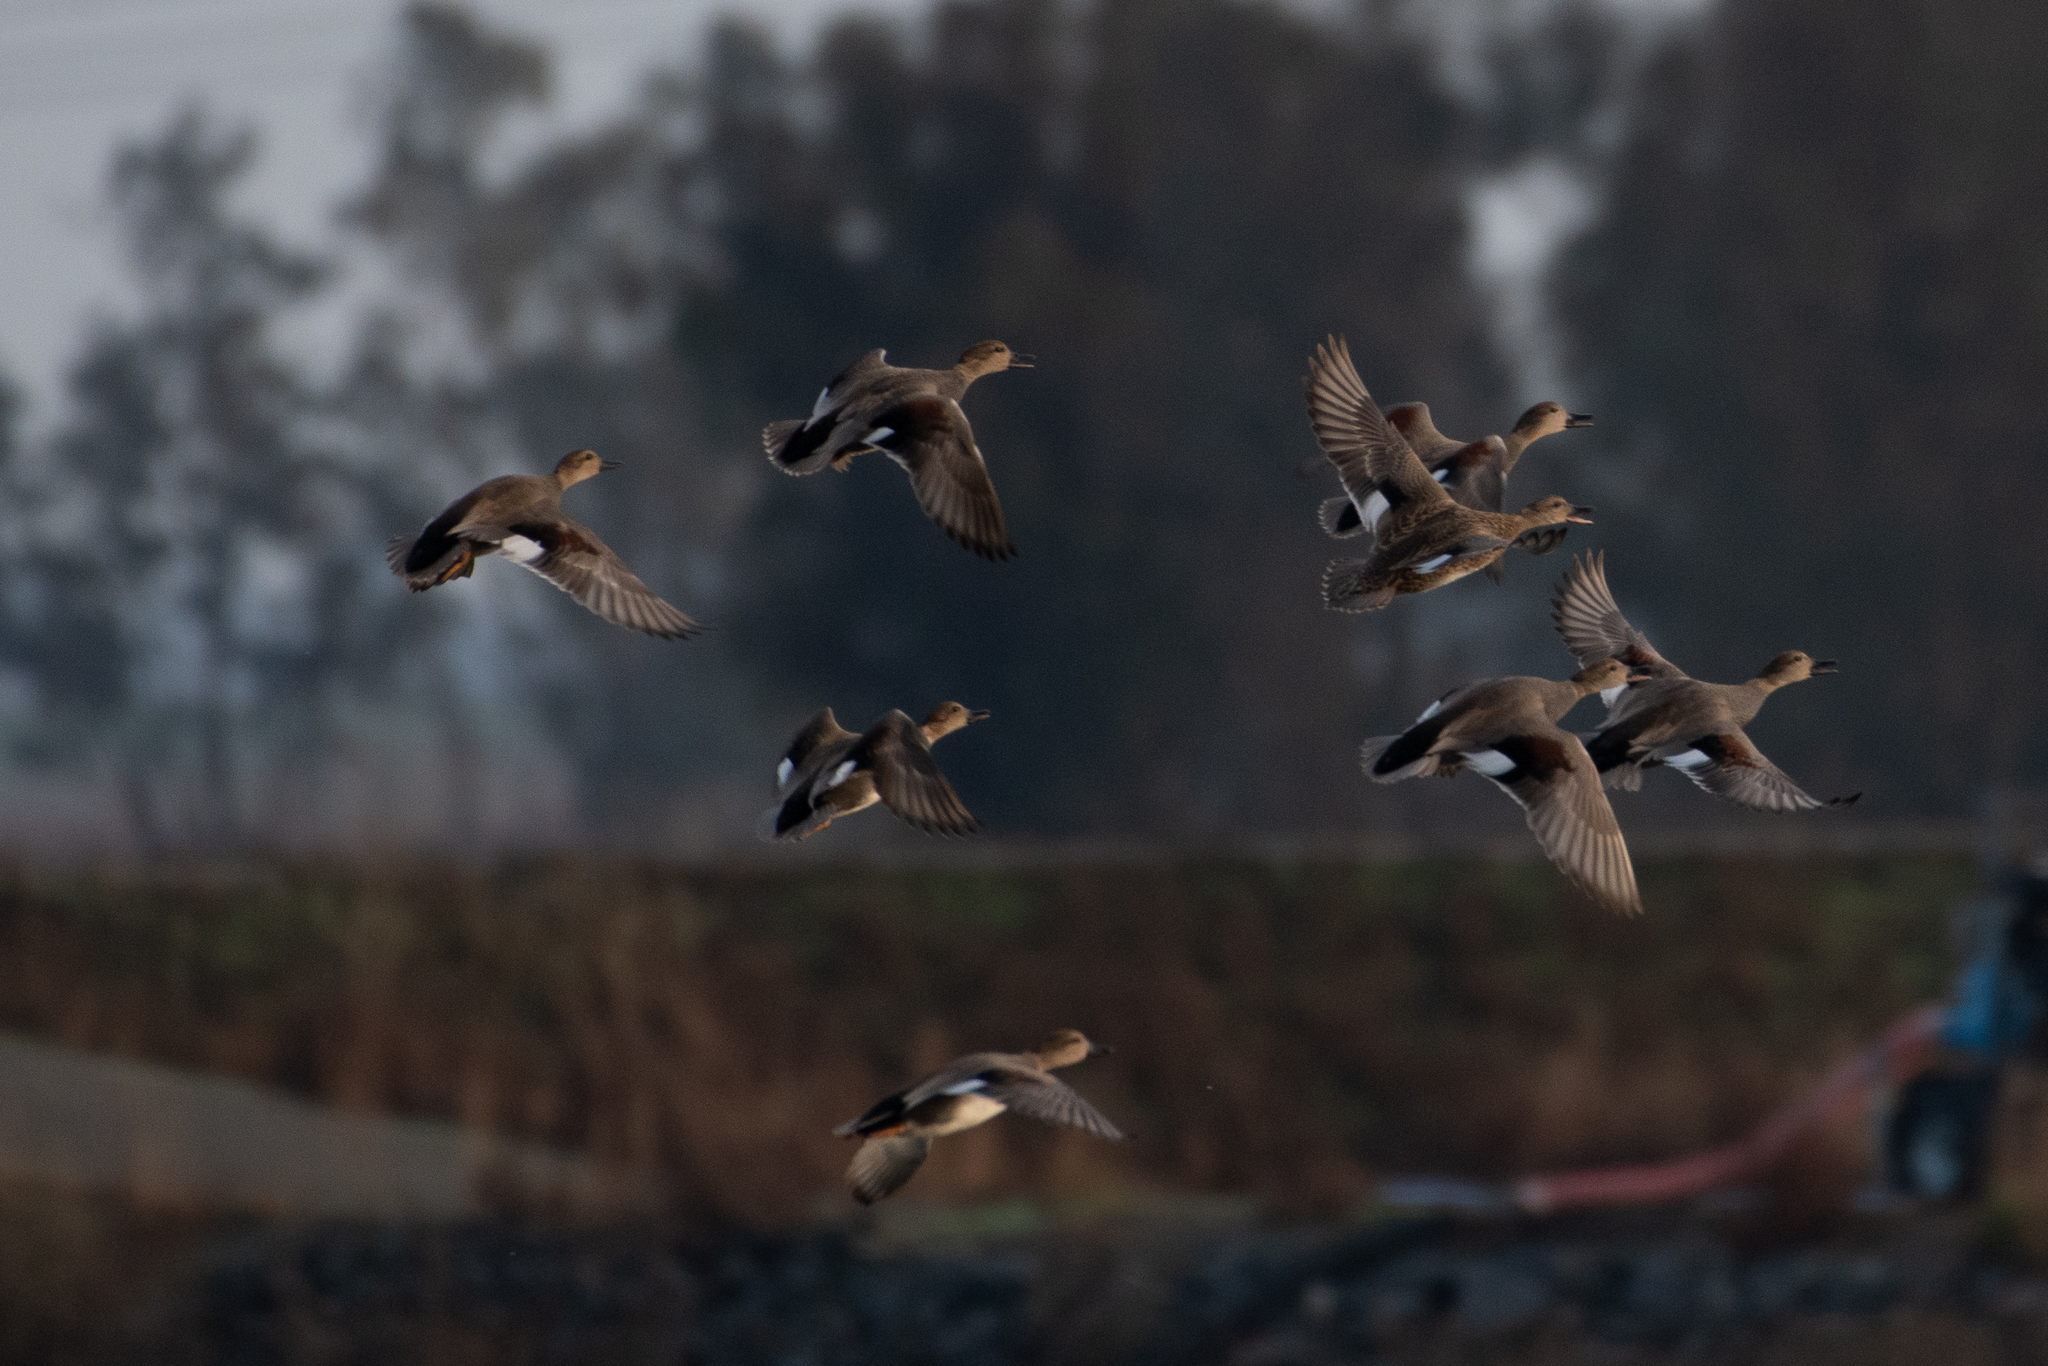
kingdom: Animalia
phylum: Chordata
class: Aves
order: Anseriformes
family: Anatidae
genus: Mareca
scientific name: Mareca strepera
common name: Gadwall
